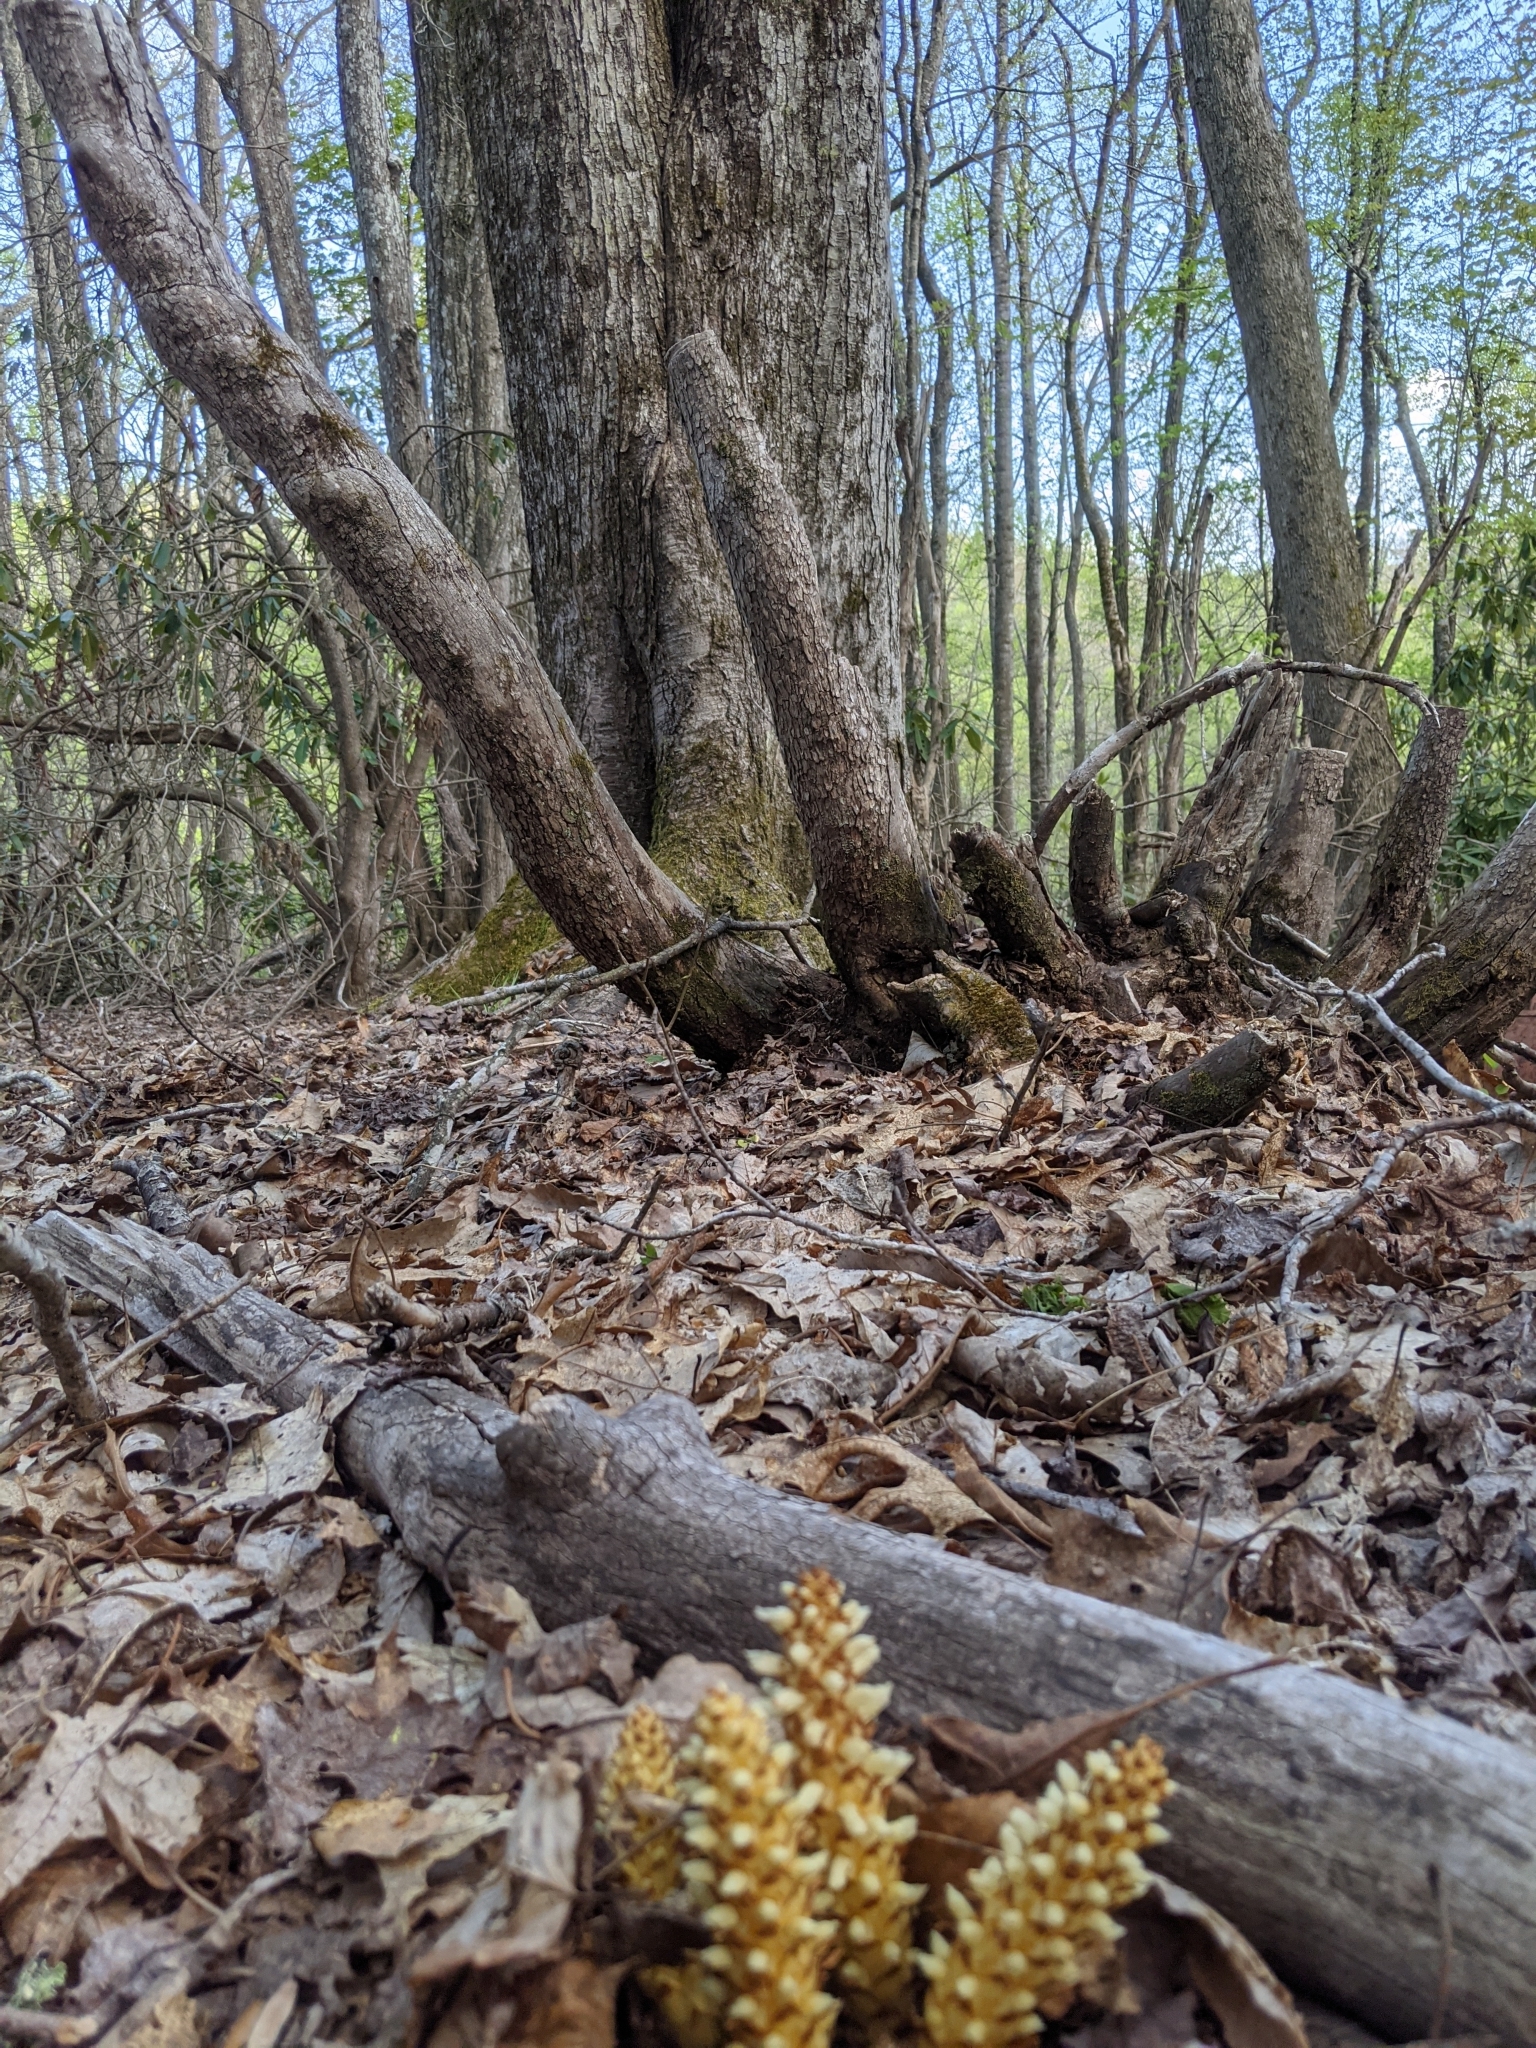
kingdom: Plantae
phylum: Tracheophyta
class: Magnoliopsida
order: Lamiales
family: Orobanchaceae
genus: Conopholis
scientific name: Conopholis americana
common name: American cancer-root
